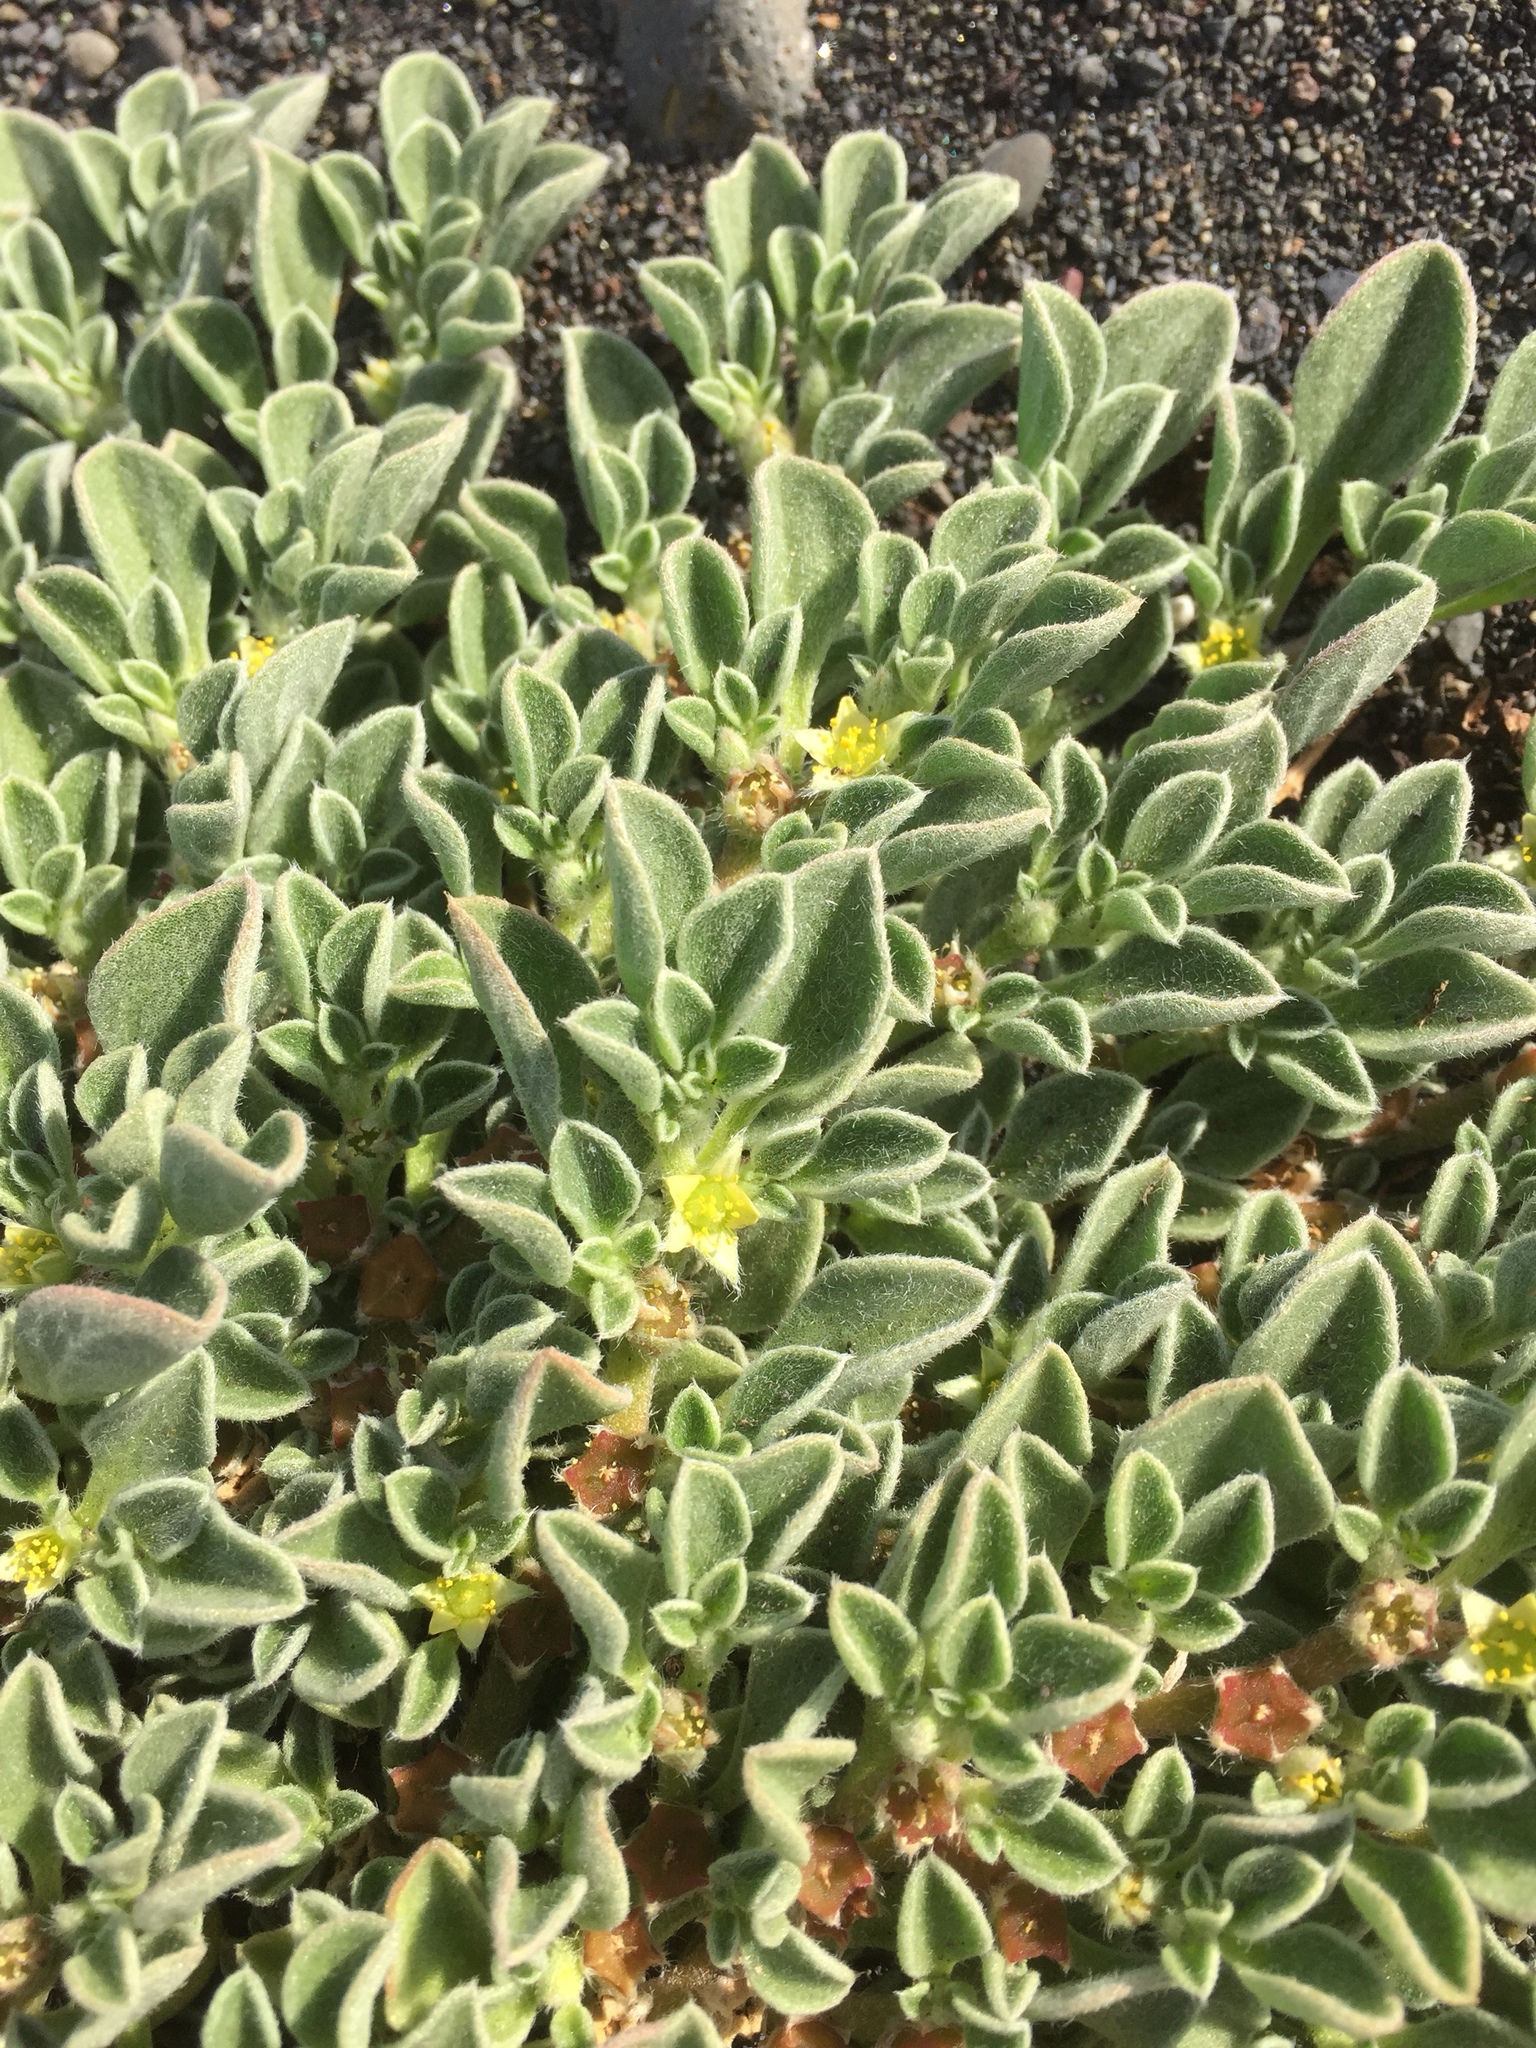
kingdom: Plantae
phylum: Tracheophyta
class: Magnoliopsida
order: Caryophyllales
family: Aizoaceae
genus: Aizoon
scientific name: Aizoon canariense
